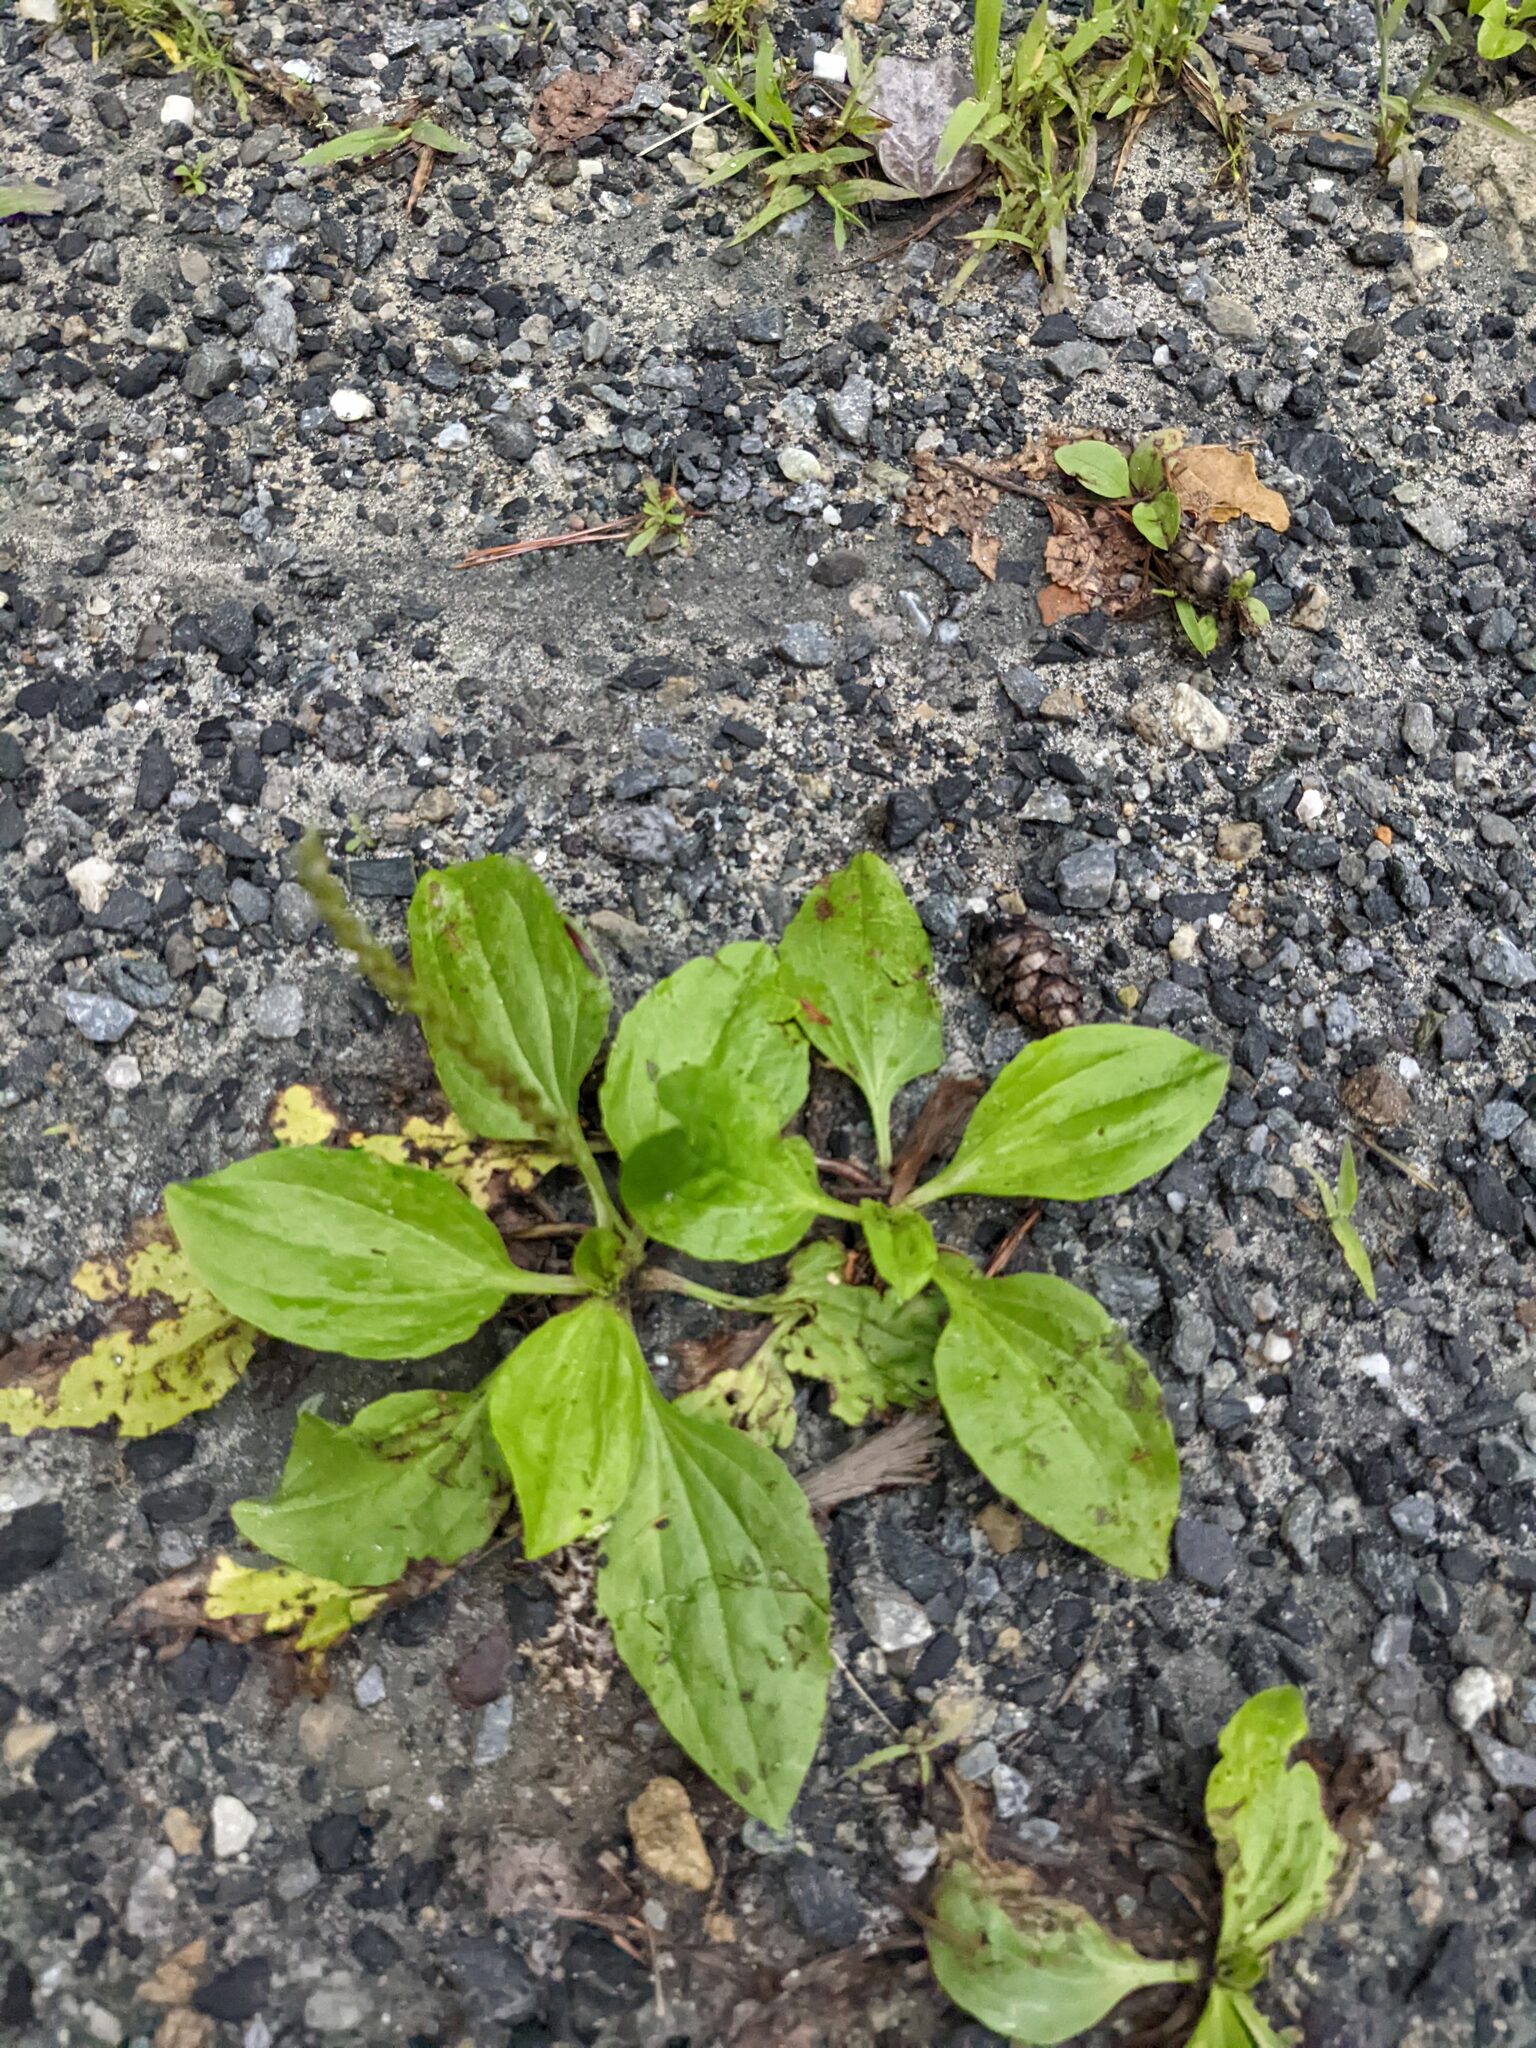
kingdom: Plantae
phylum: Tracheophyta
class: Magnoliopsida
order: Lamiales
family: Plantaginaceae
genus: Plantago
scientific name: Plantago rugelii
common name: American plantain
